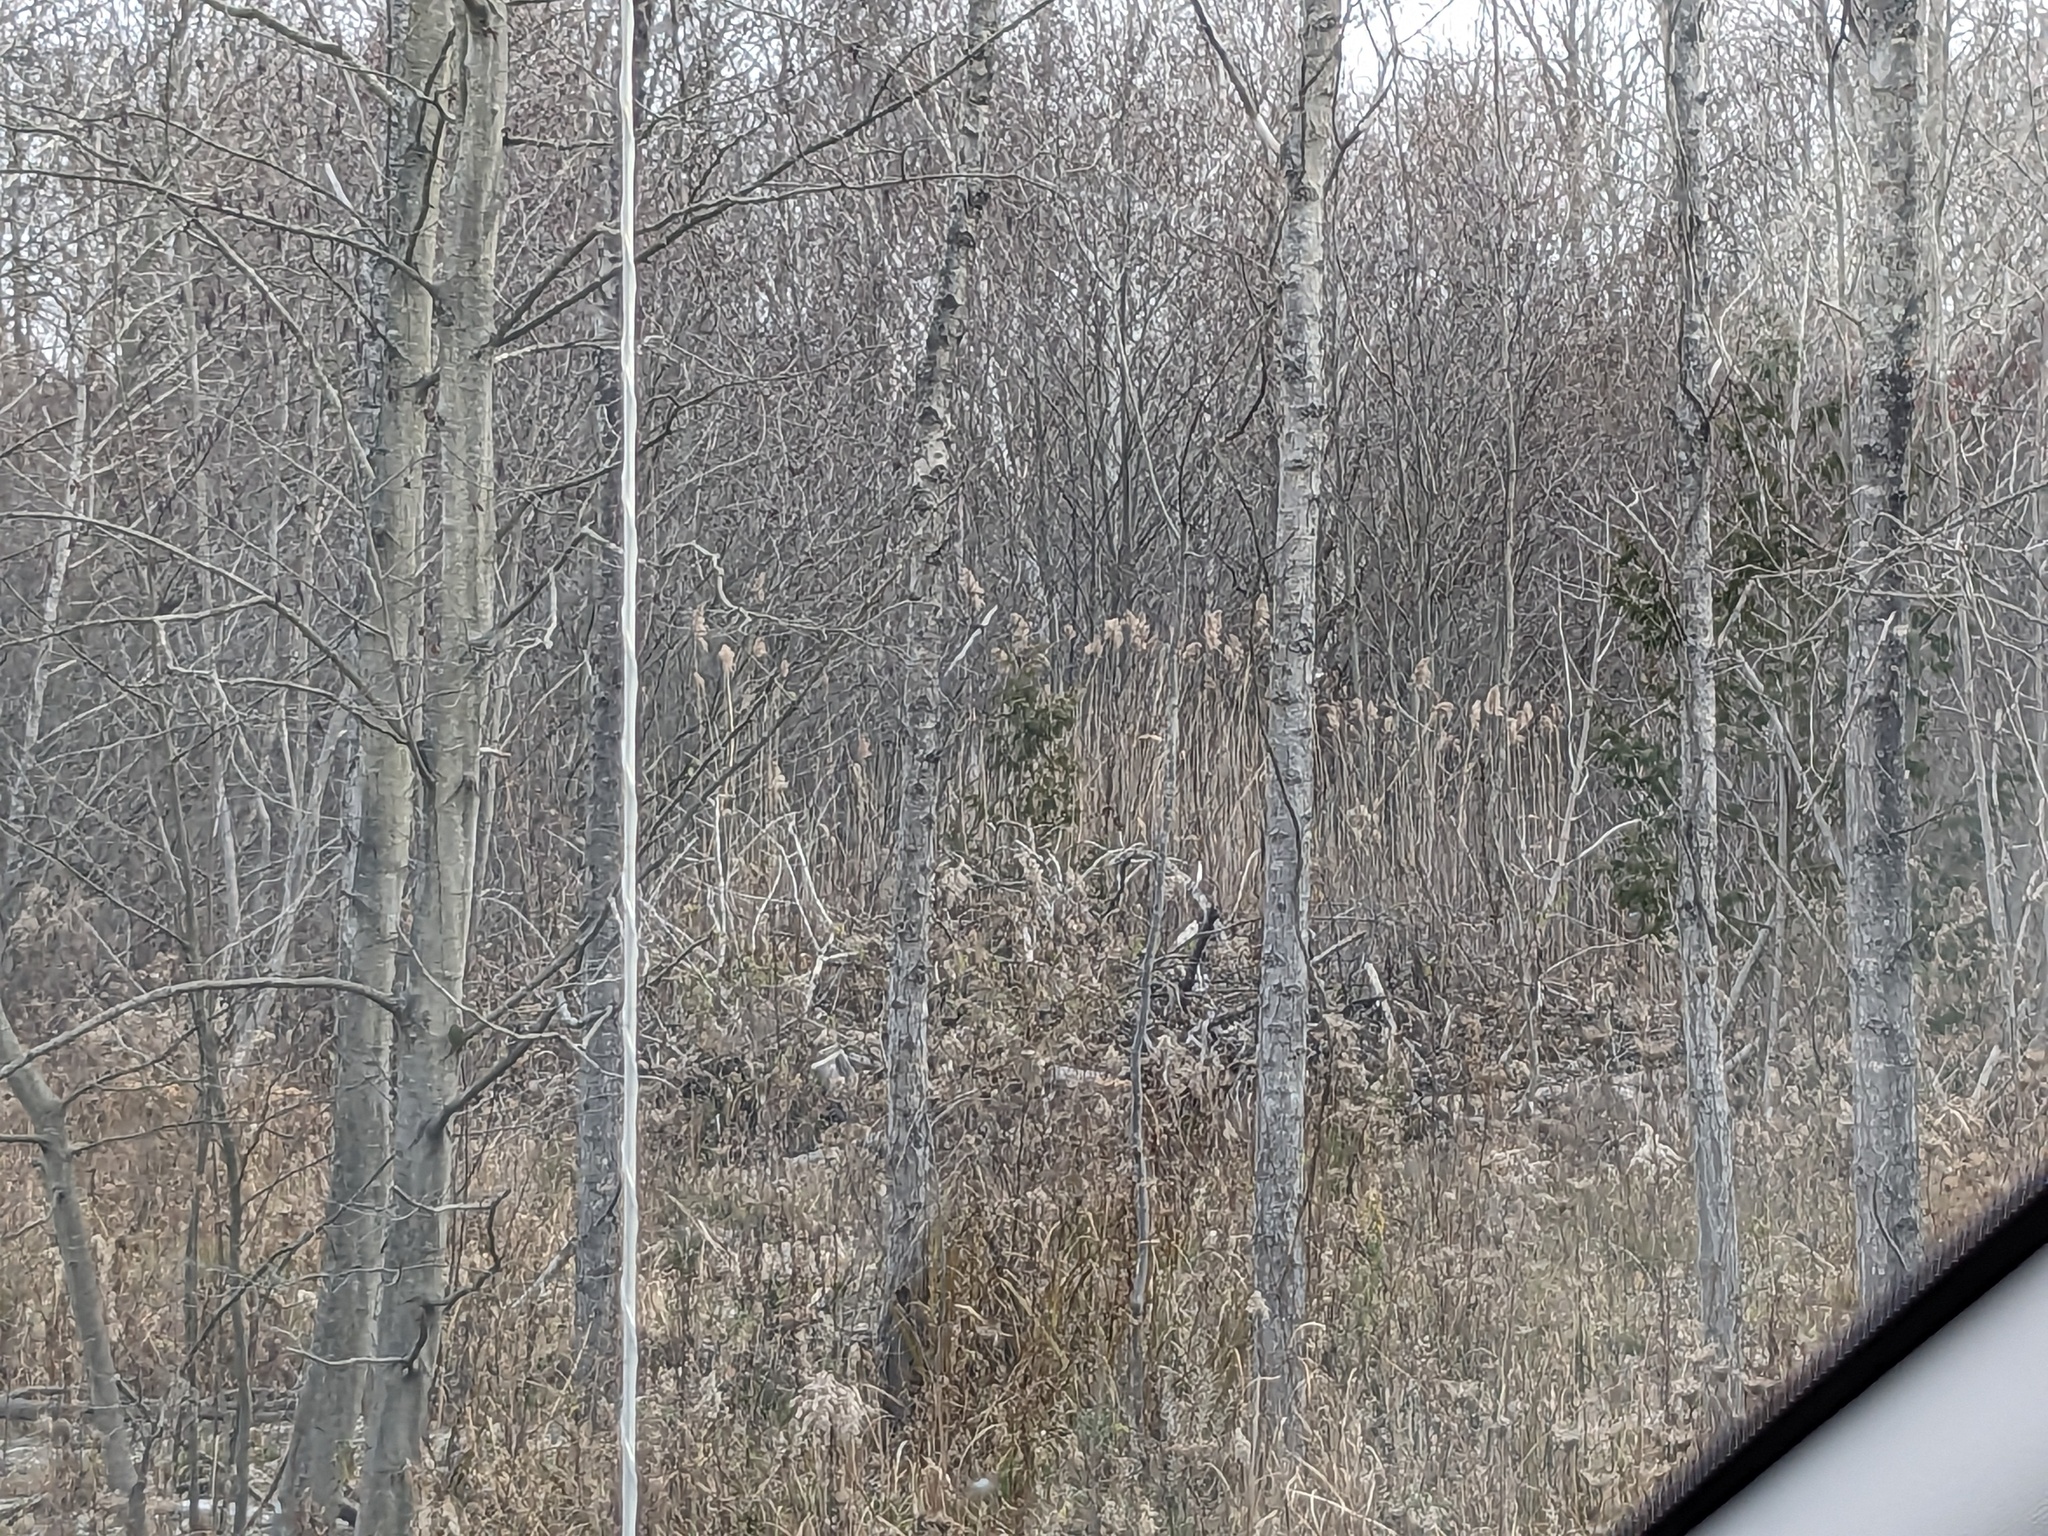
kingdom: Plantae
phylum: Tracheophyta
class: Liliopsida
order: Poales
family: Poaceae
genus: Phragmites
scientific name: Phragmites australis
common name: Common reed
